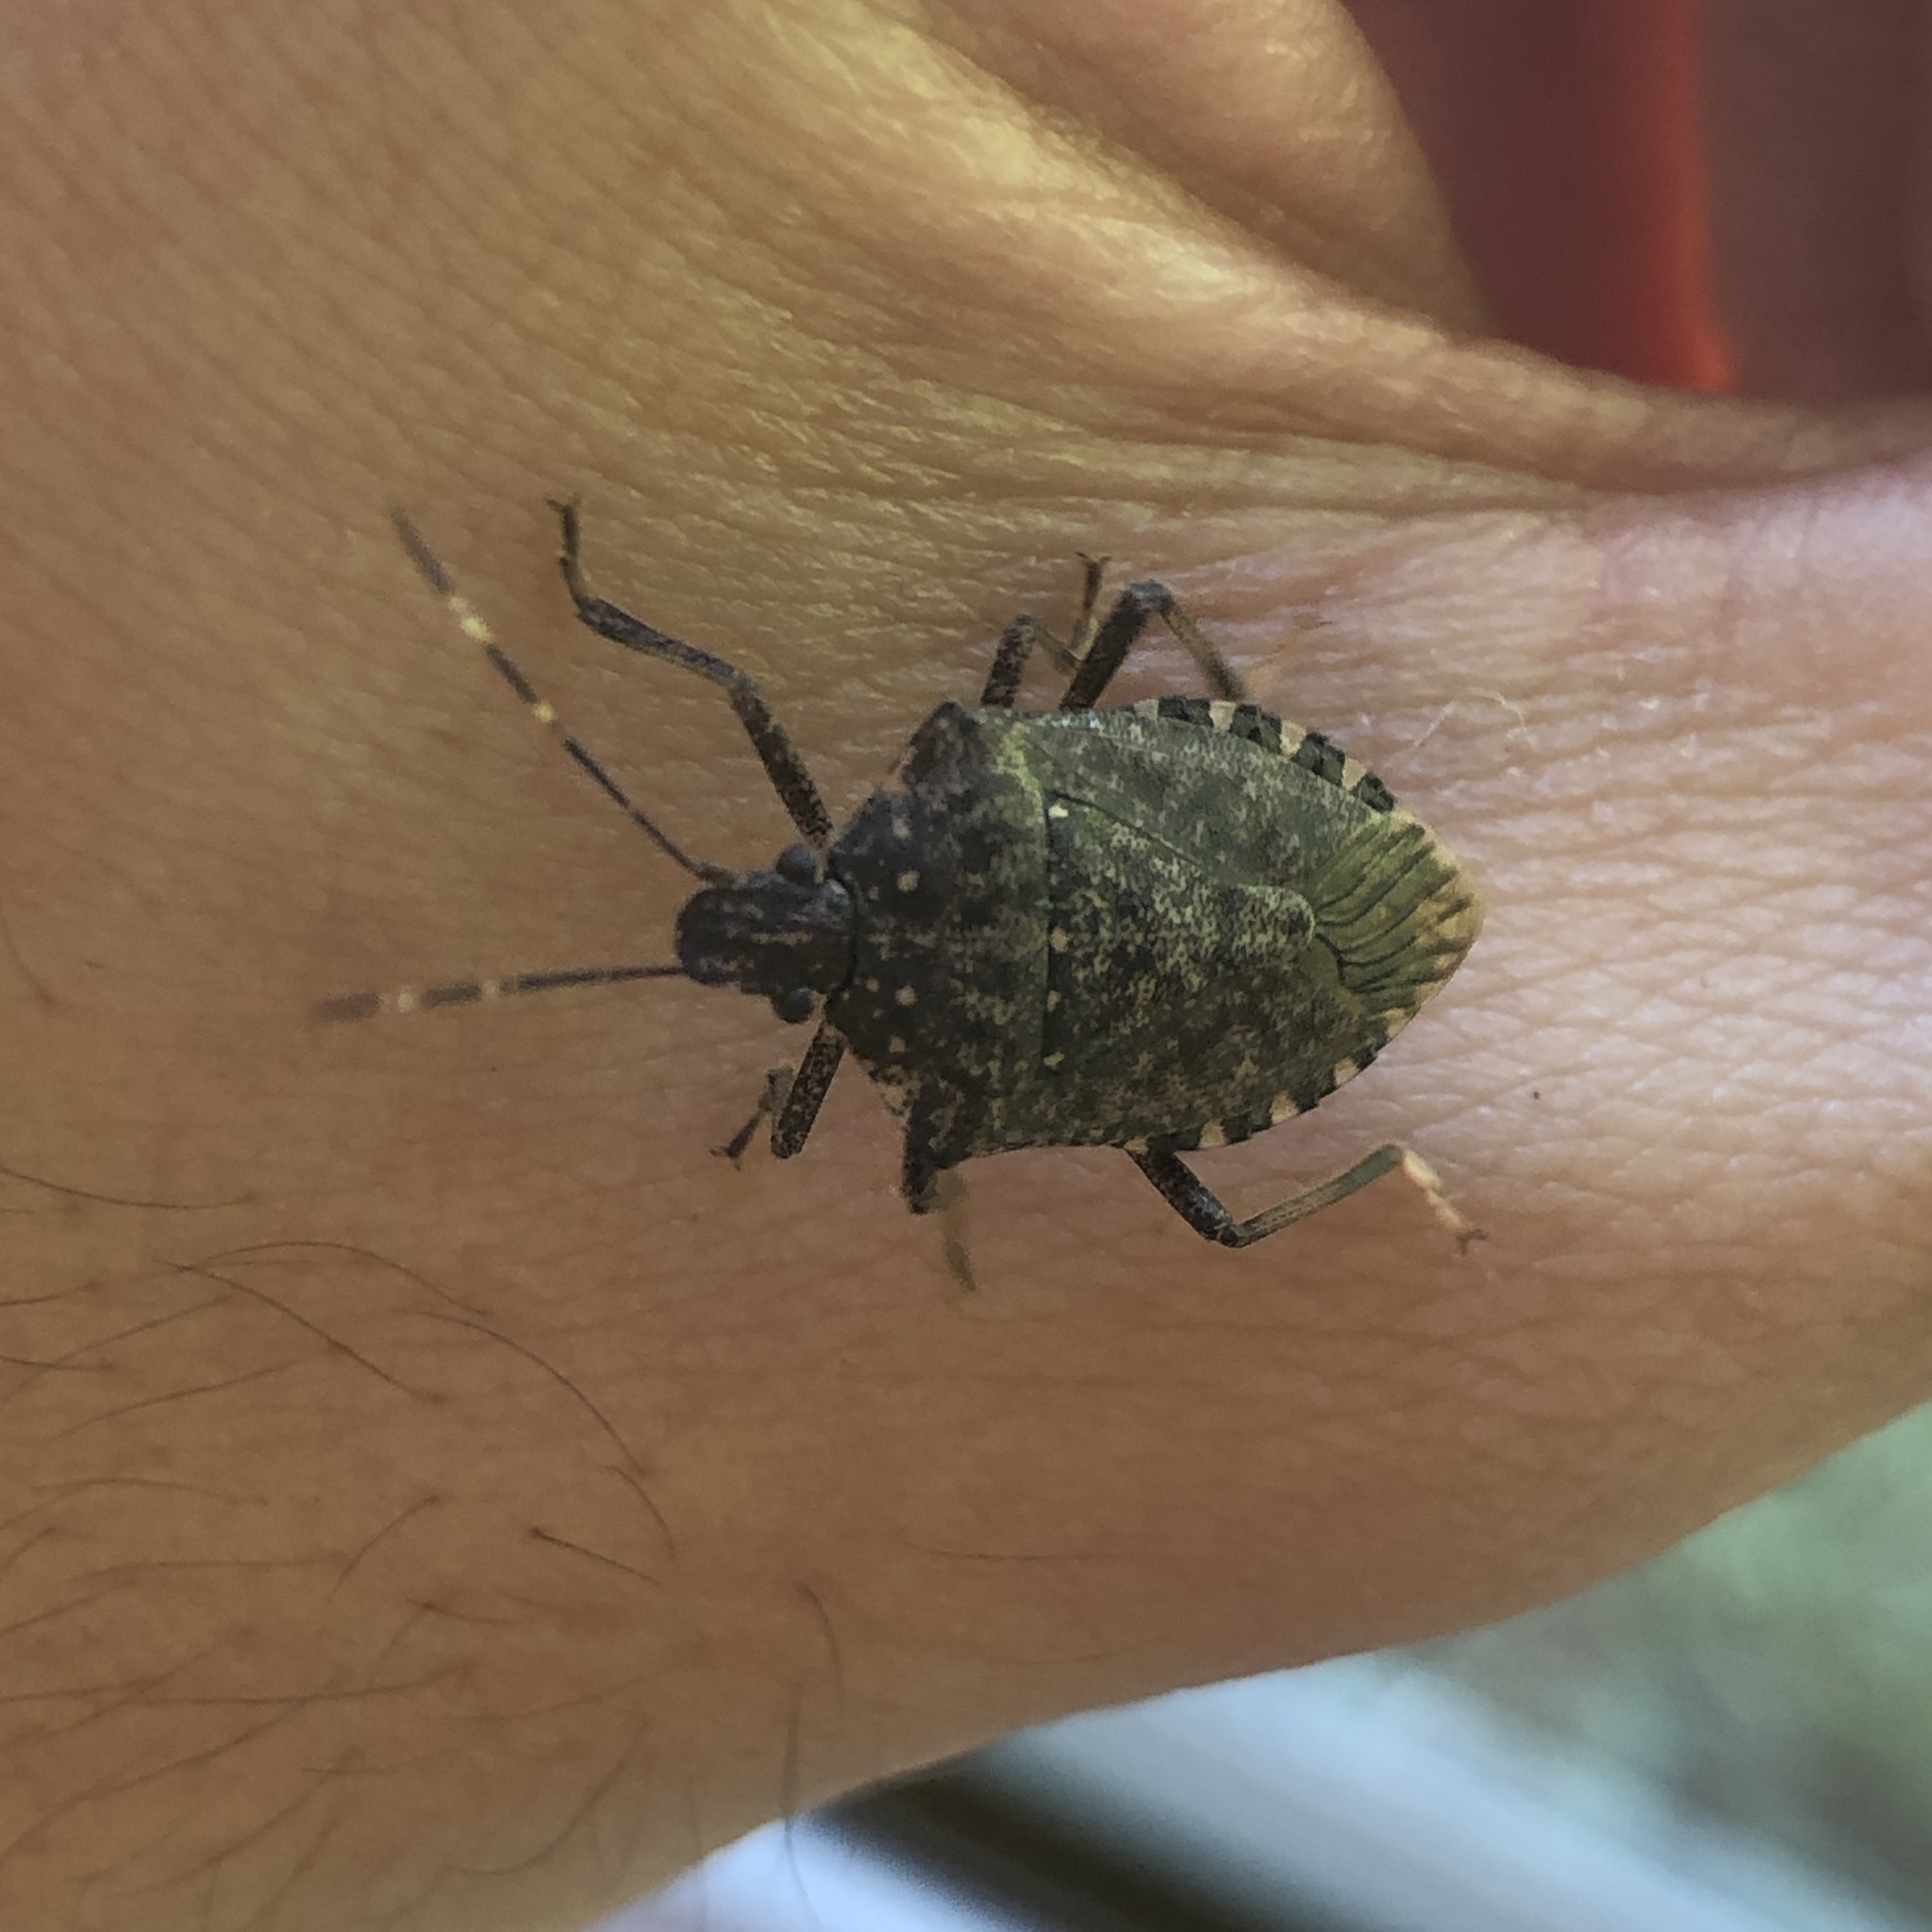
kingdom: Animalia
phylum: Arthropoda
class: Insecta
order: Hemiptera
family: Pentatomidae
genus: Halyomorpha
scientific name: Halyomorpha halys
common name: Brown marmorated stink bug
